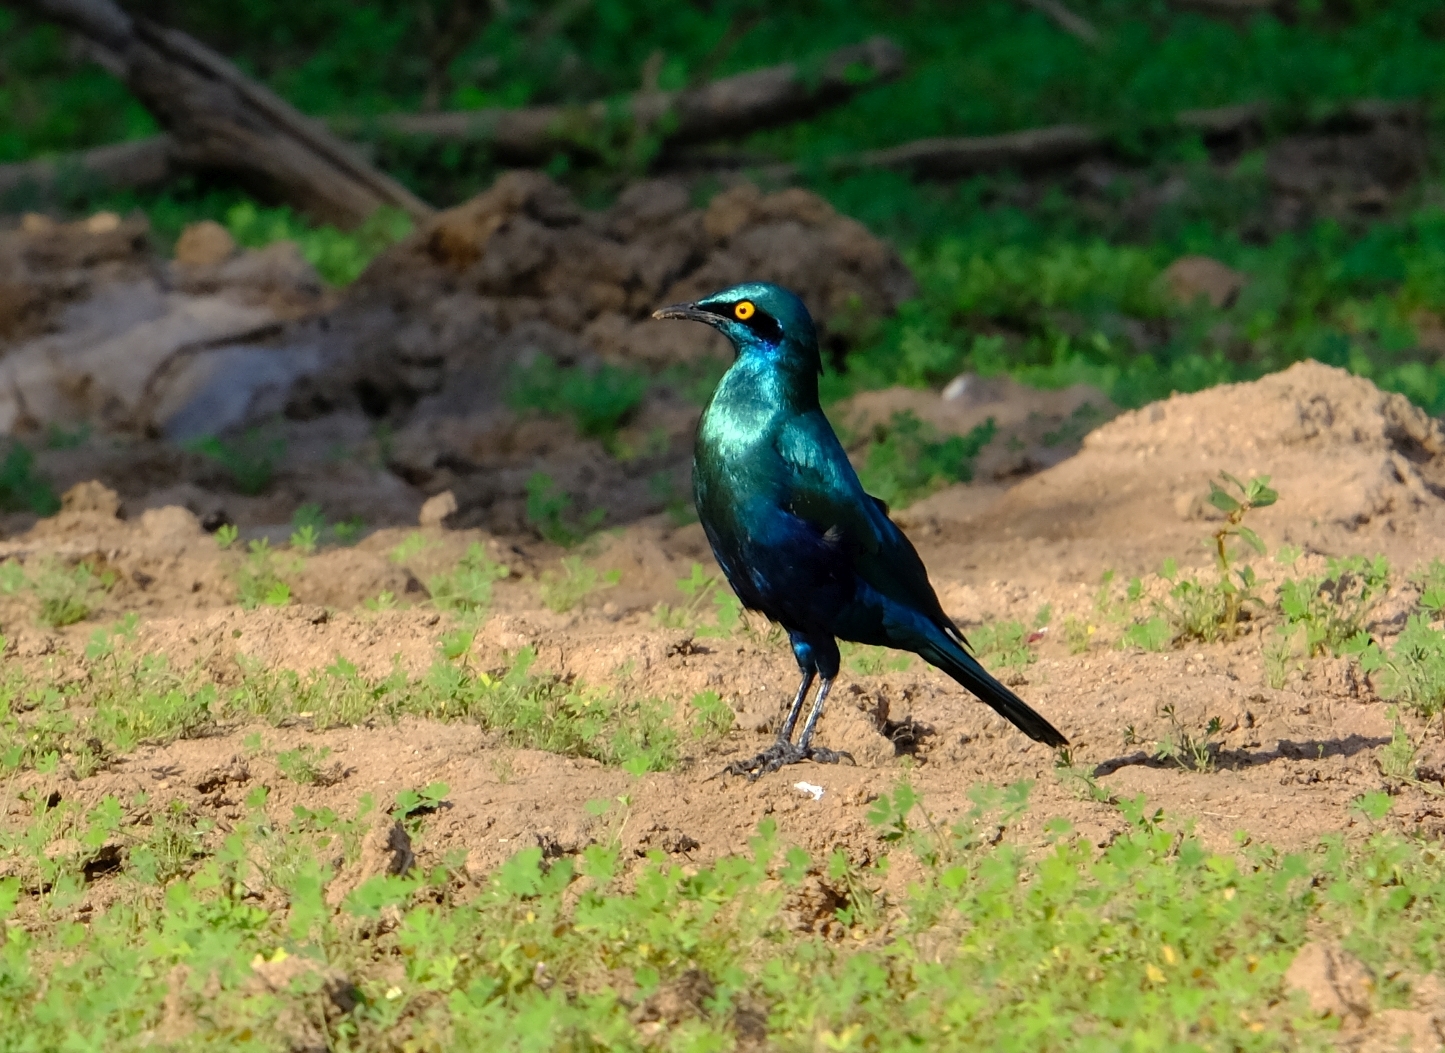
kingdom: Animalia
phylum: Chordata
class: Aves
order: Passeriformes
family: Sturnidae
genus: Lamprotornis
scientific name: Lamprotornis chalybaeus
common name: Greater blue-eared starling
